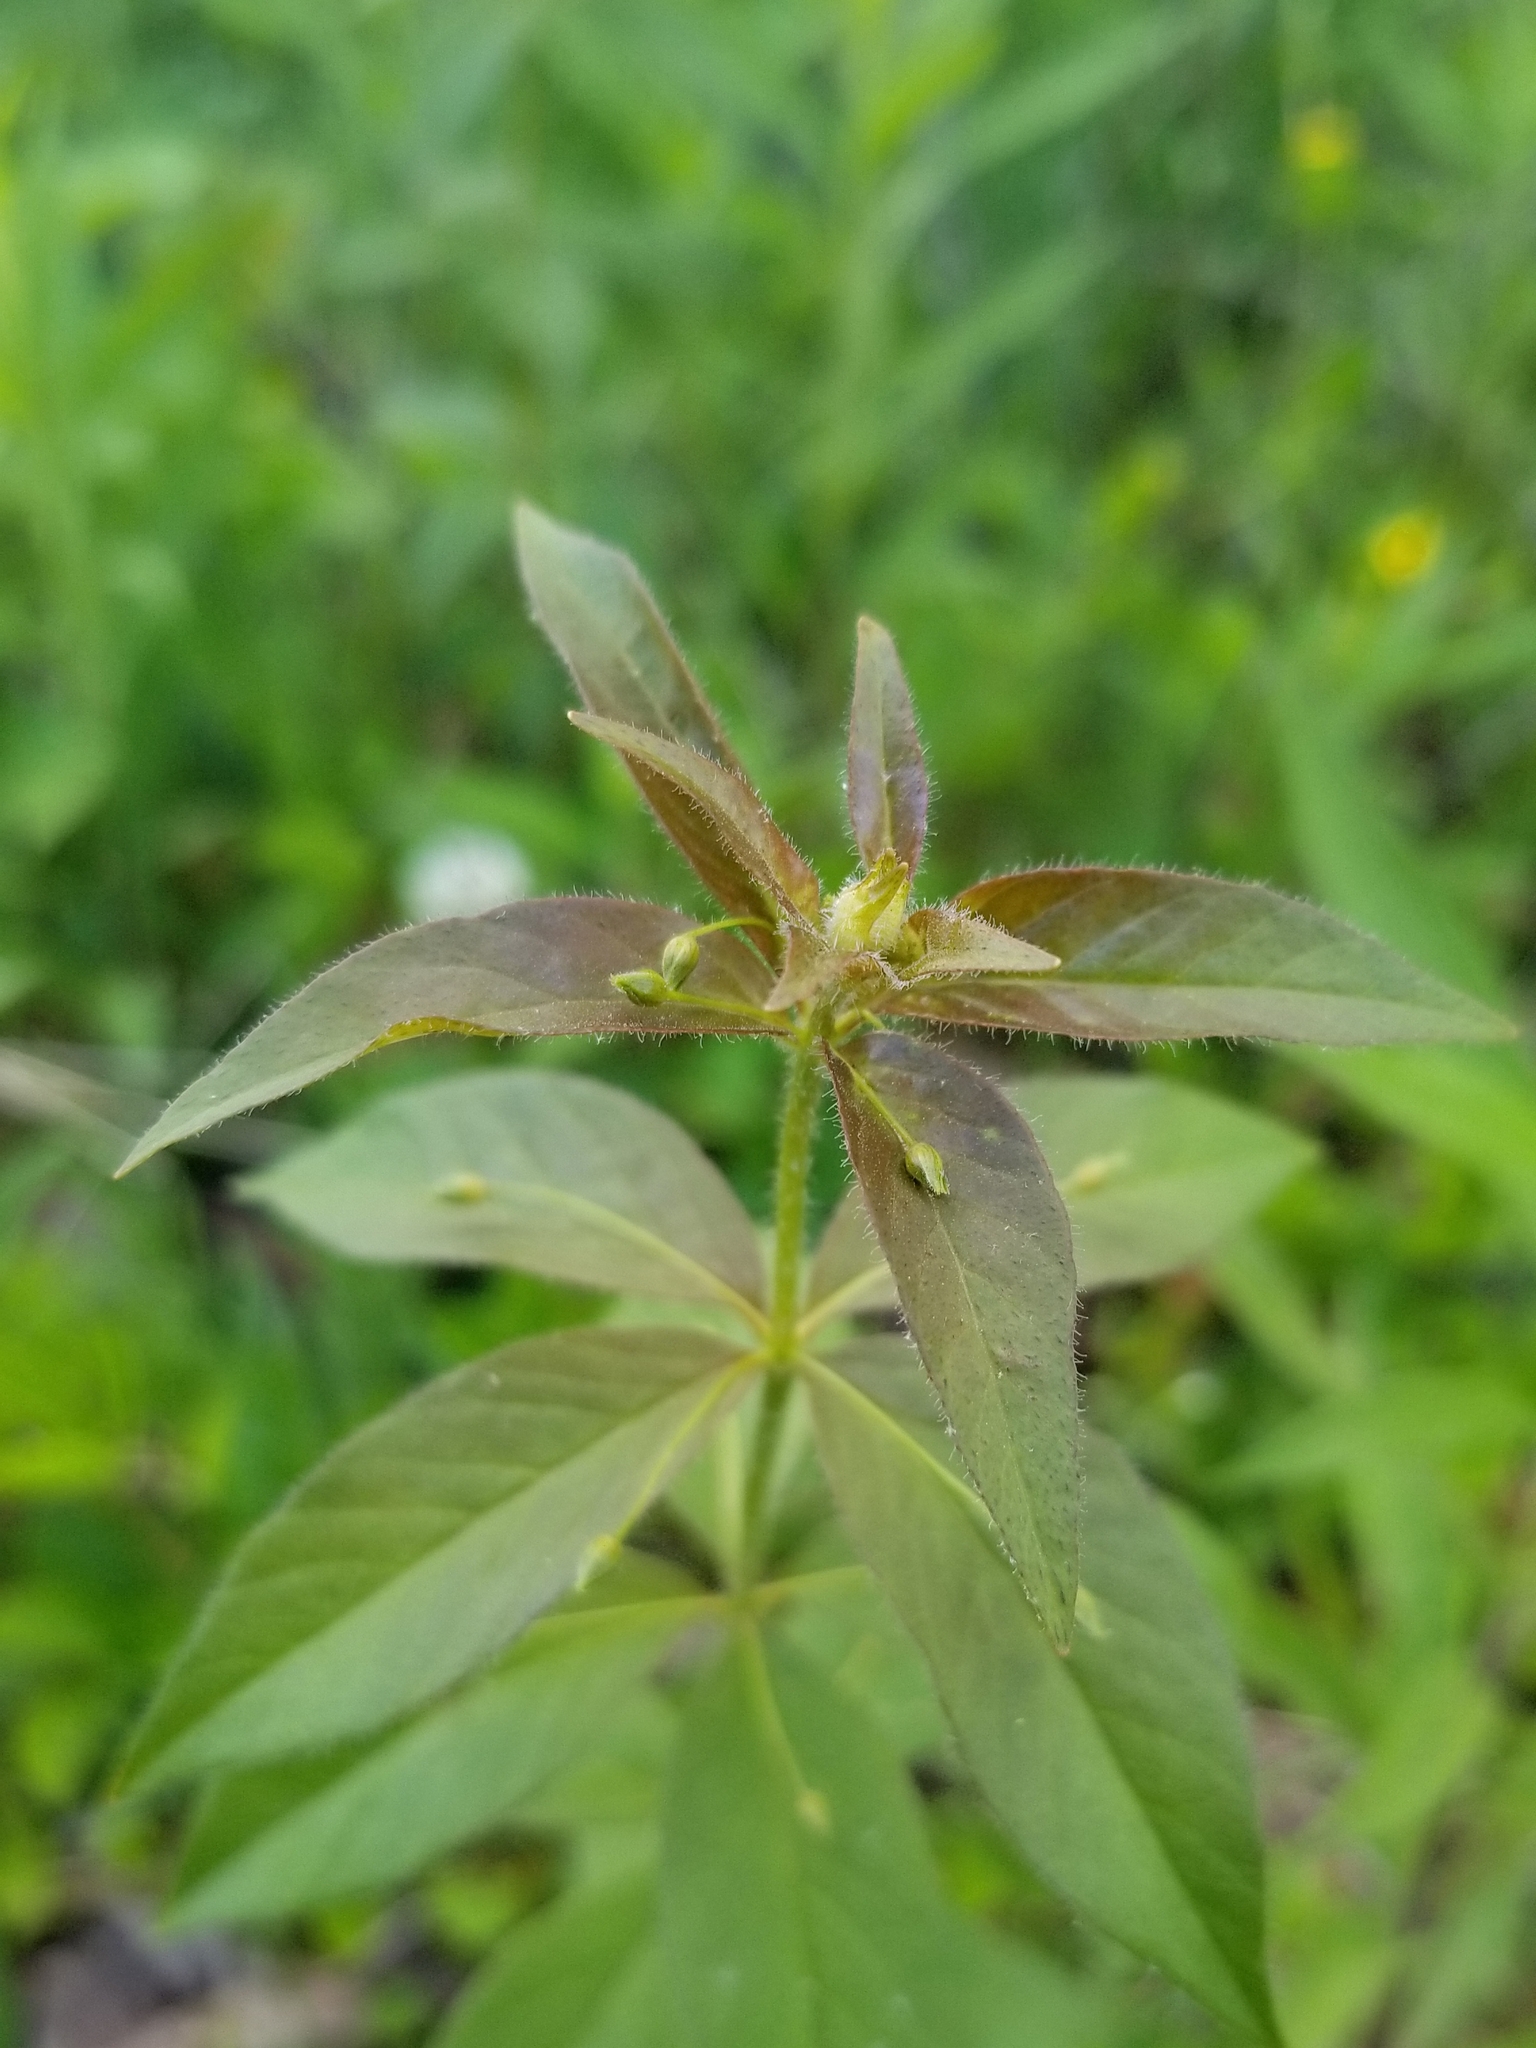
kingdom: Plantae
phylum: Tracheophyta
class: Magnoliopsida
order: Ericales
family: Primulaceae
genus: Lysimachia
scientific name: Lysimachia quadrifolia
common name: Whorled loosestrife
